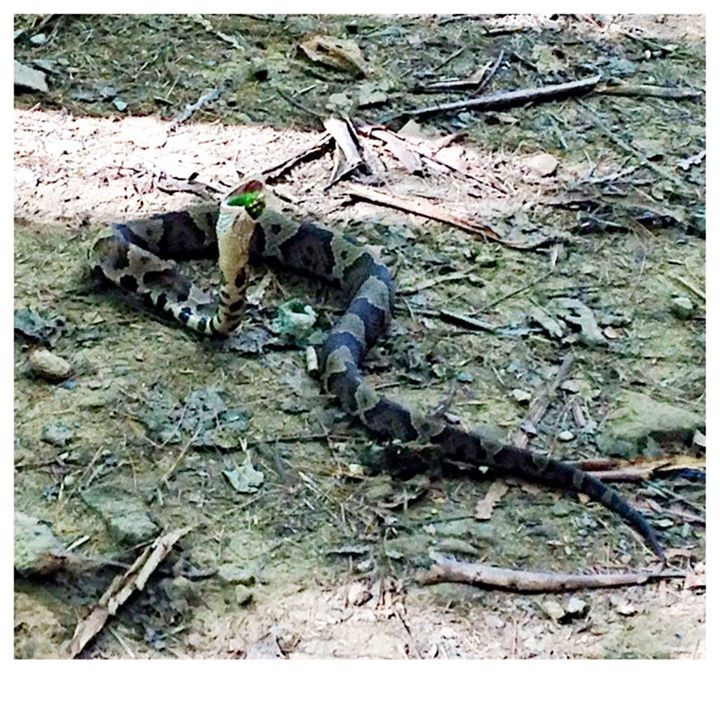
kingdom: Animalia
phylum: Chordata
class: Squamata
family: Viperidae
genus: Agkistrodon
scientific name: Agkistrodon contortrix
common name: Northern copperhead
